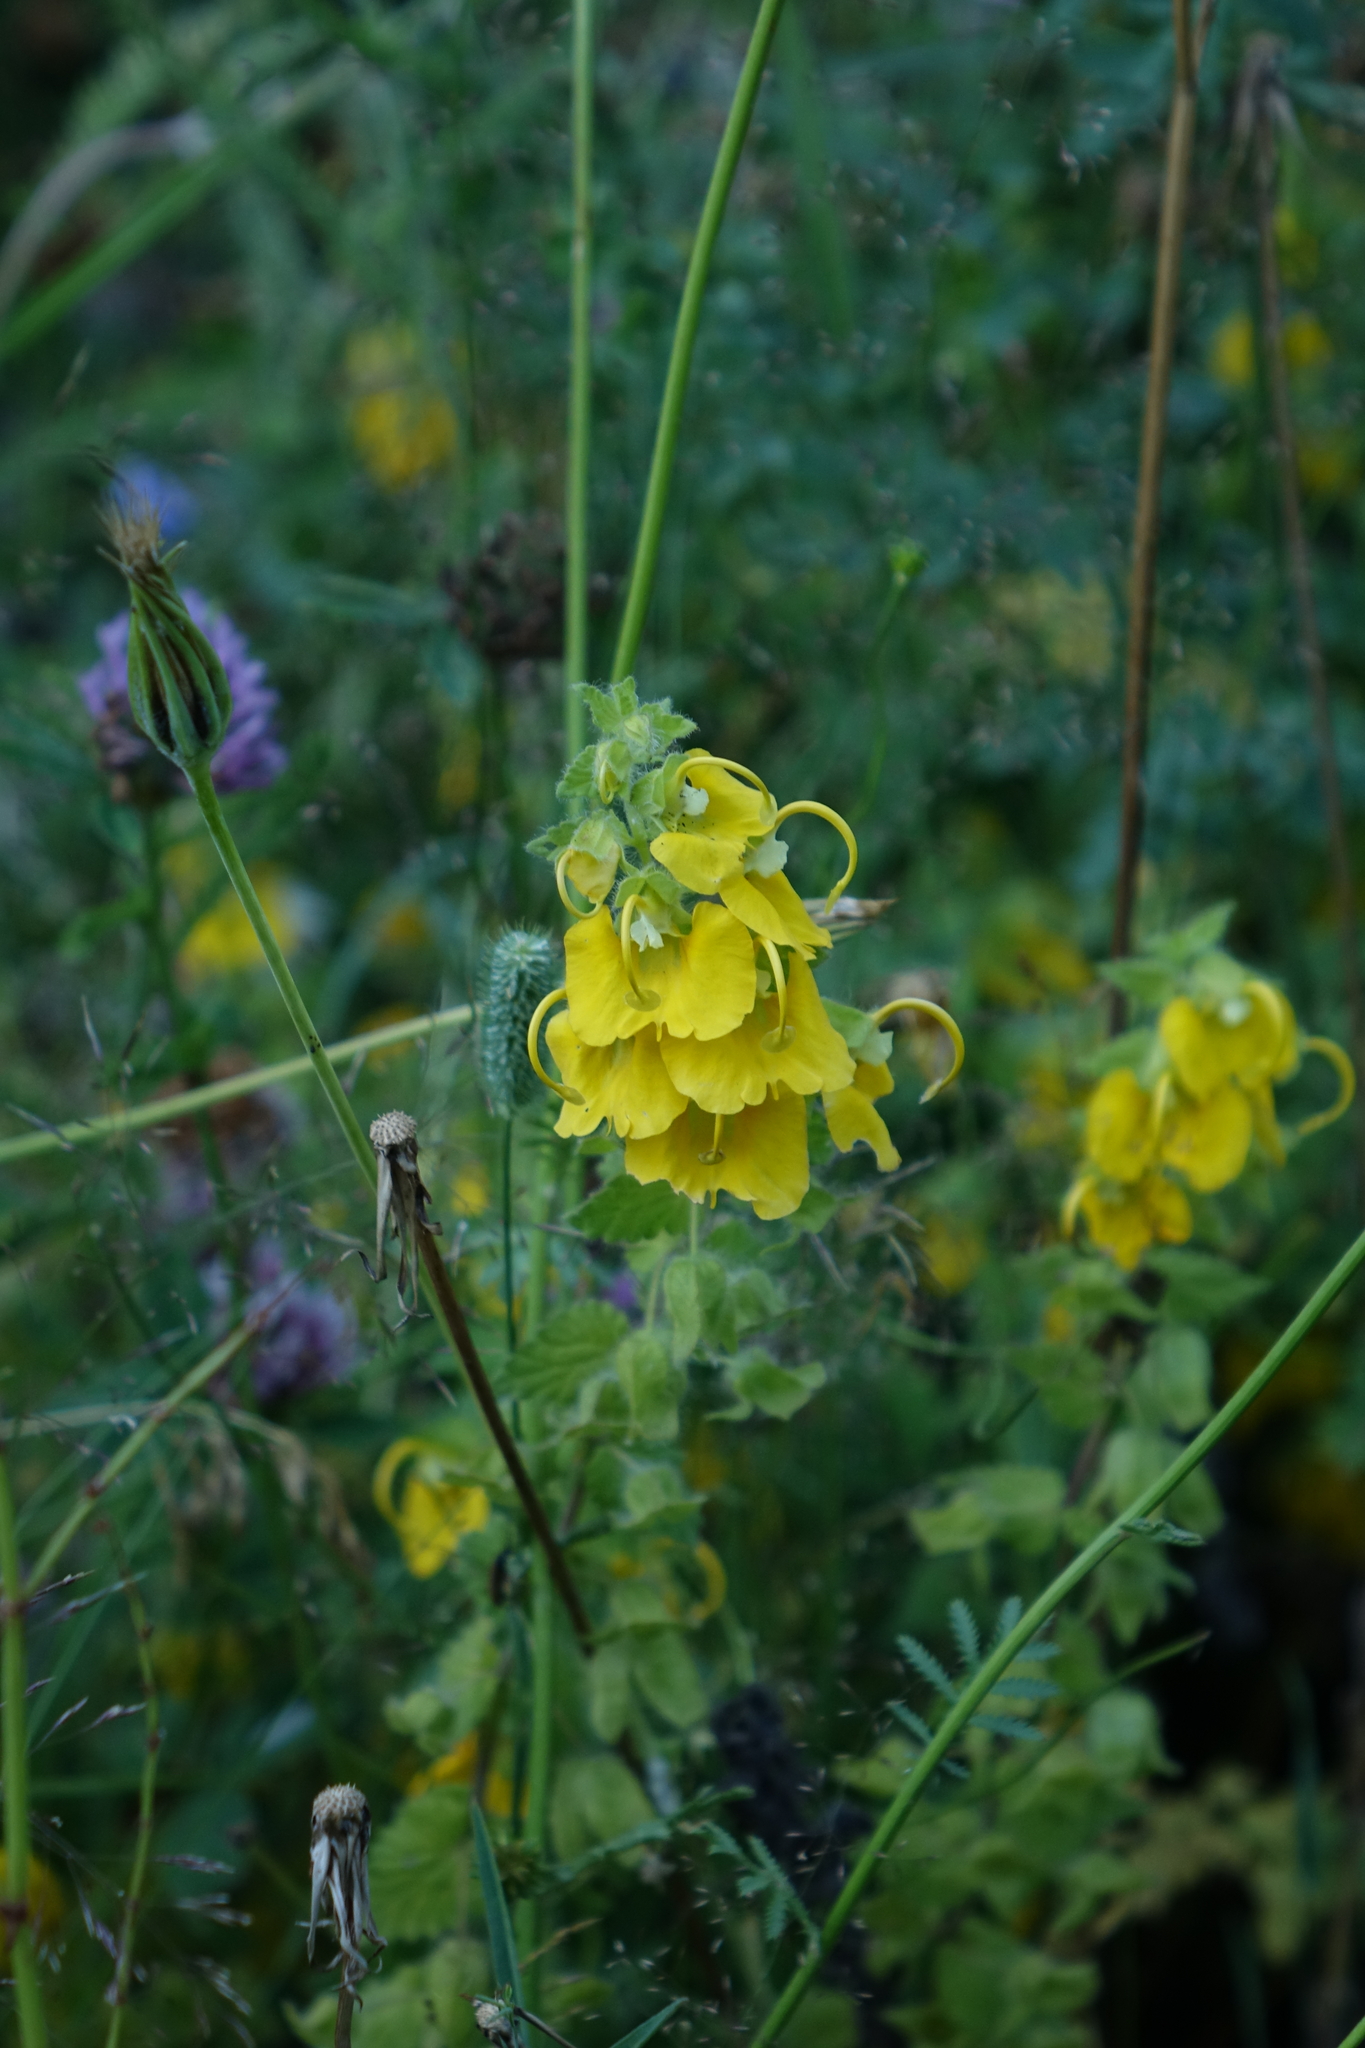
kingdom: Plantae
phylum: Tracheophyta
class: Magnoliopsida
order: Lamiales
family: Orobanchaceae
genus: Rhynchocorys
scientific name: Rhynchocorys orientalis
